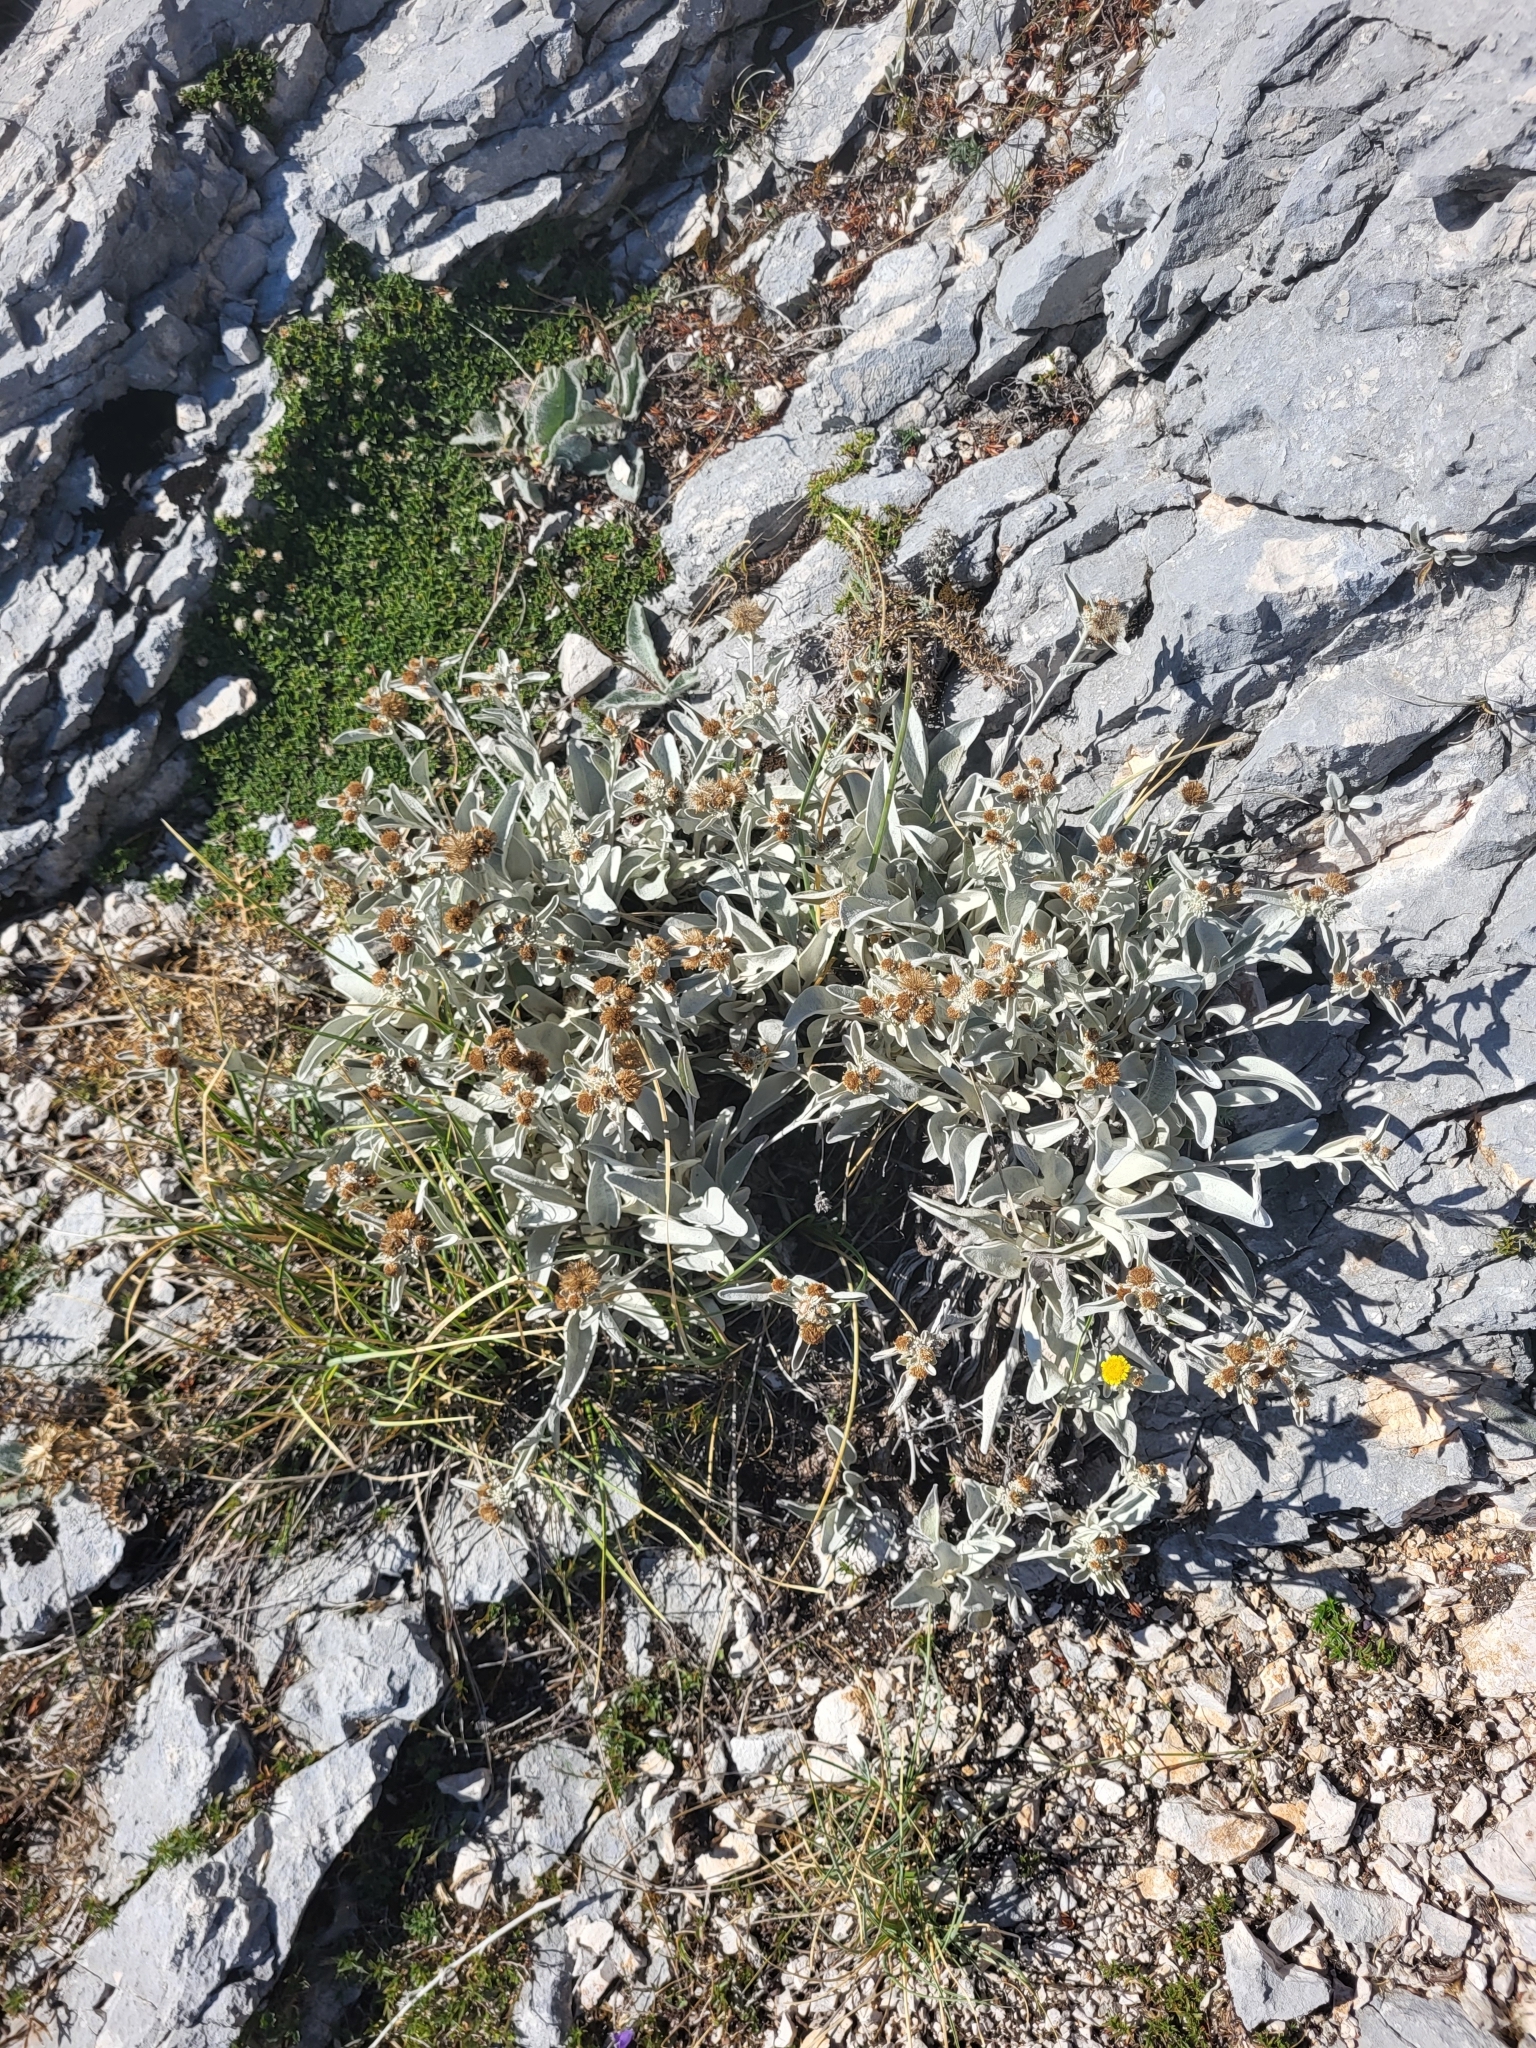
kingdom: Plantae
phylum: Tracheophyta
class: Magnoliopsida
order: Asterales
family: Asteraceae
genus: Pentanema
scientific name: Pentanema verbascifolium
